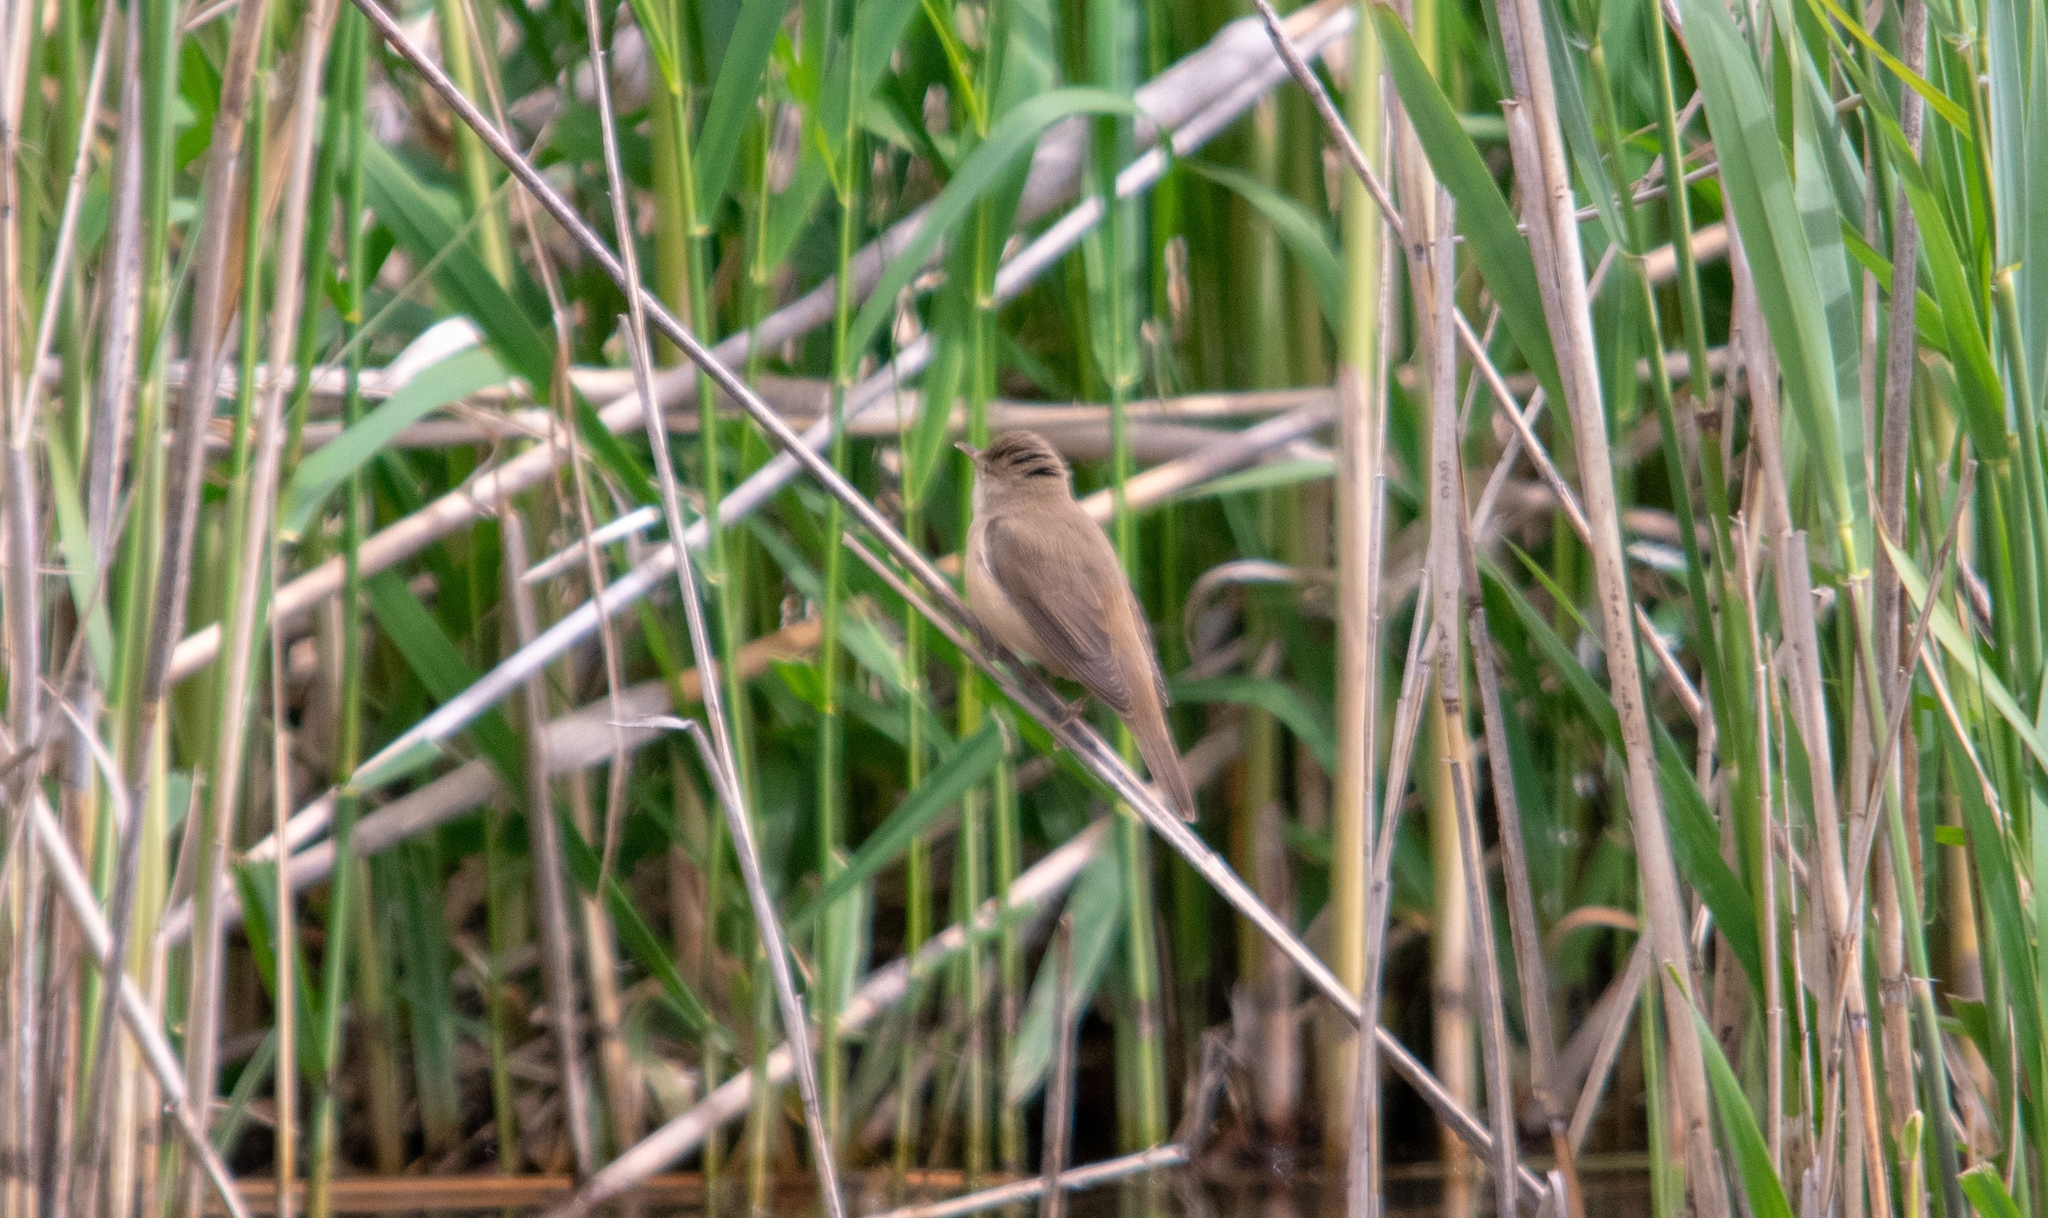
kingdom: Animalia
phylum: Chordata
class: Aves
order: Passeriformes
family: Acrocephalidae
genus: Acrocephalus
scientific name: Acrocephalus scirpaceus
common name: Eurasian reed warbler
